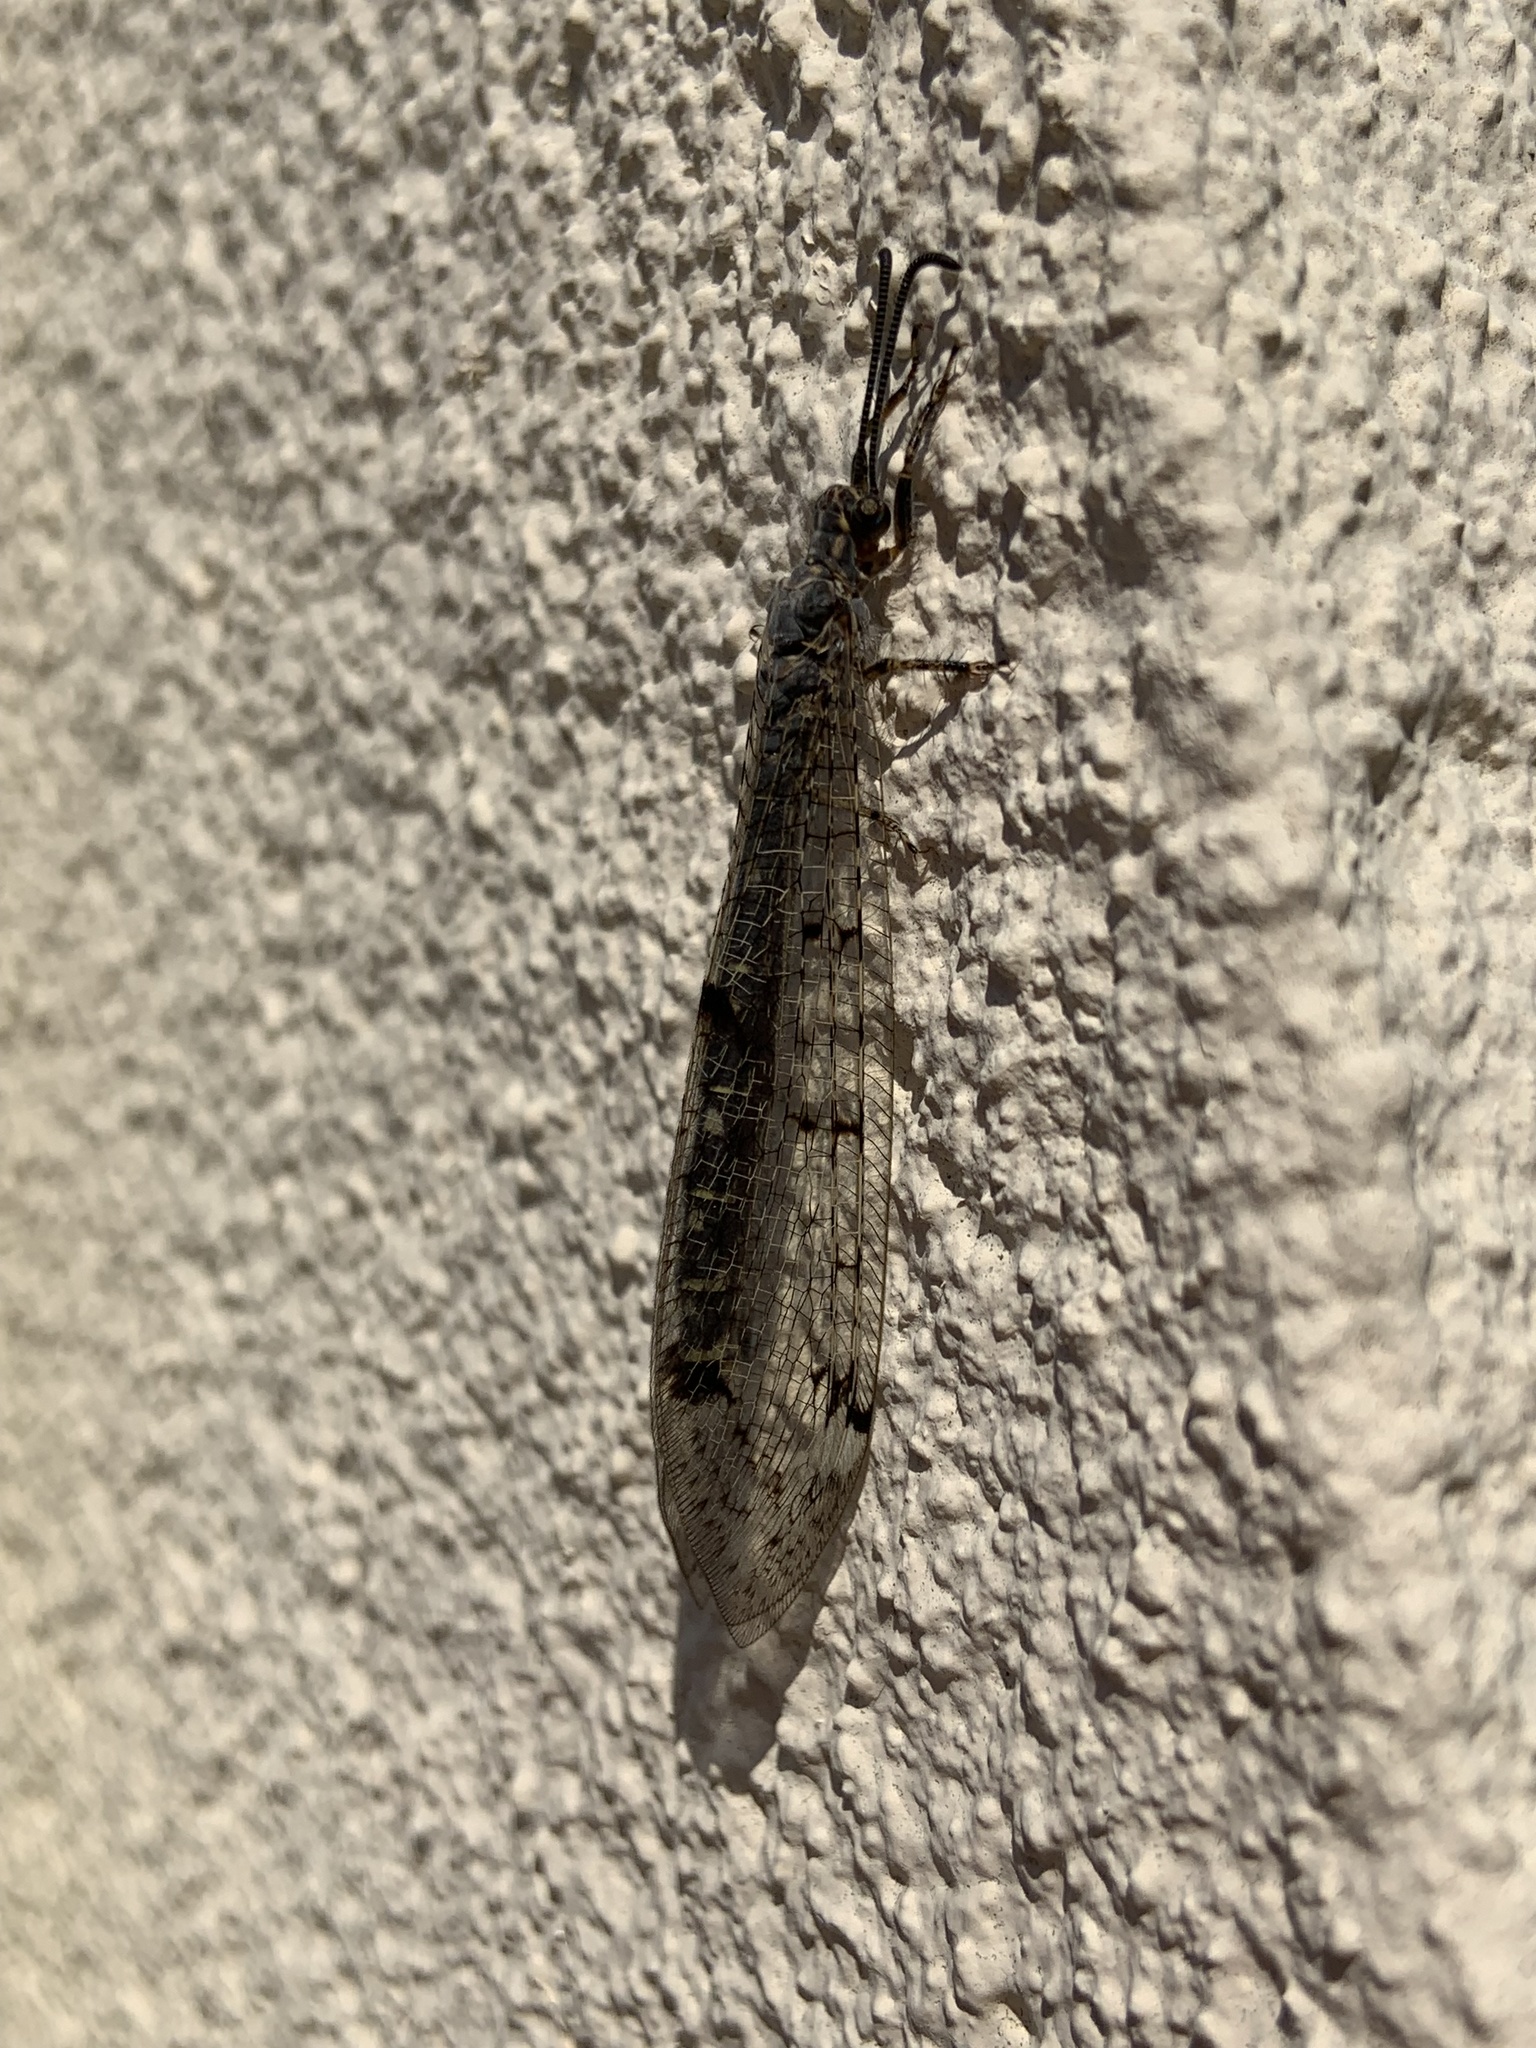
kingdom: Animalia
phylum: Arthropoda
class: Insecta
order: Neuroptera
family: Myrmeleontidae
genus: Distoleon
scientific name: Distoleon tetragrammicus
